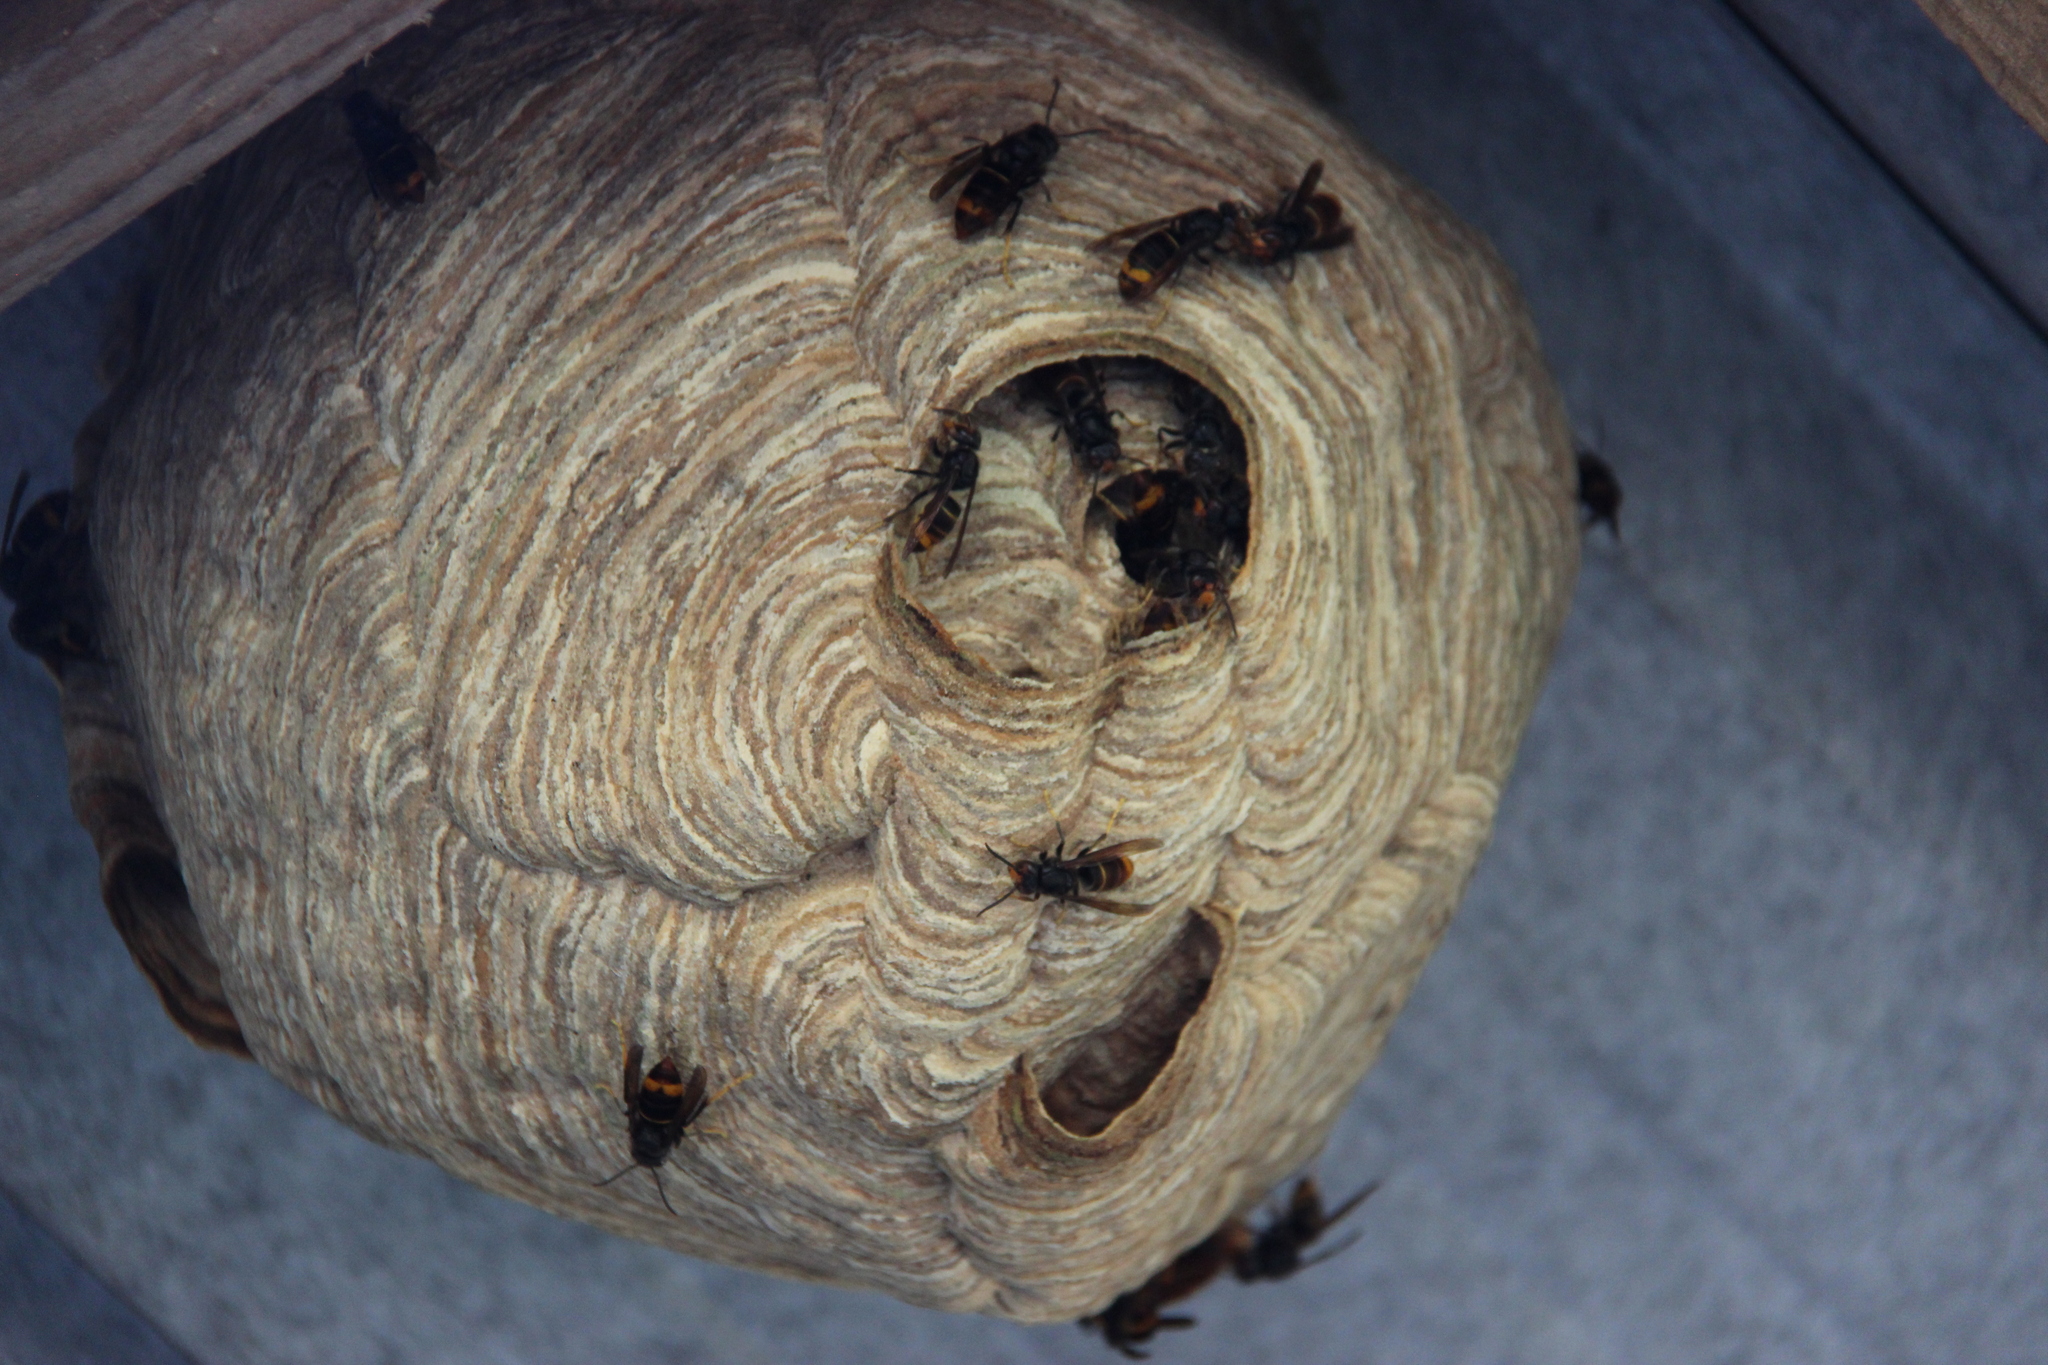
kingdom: Animalia
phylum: Arthropoda
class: Insecta
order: Hymenoptera
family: Vespidae
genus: Vespa
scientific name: Vespa velutina
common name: Asian hornet
